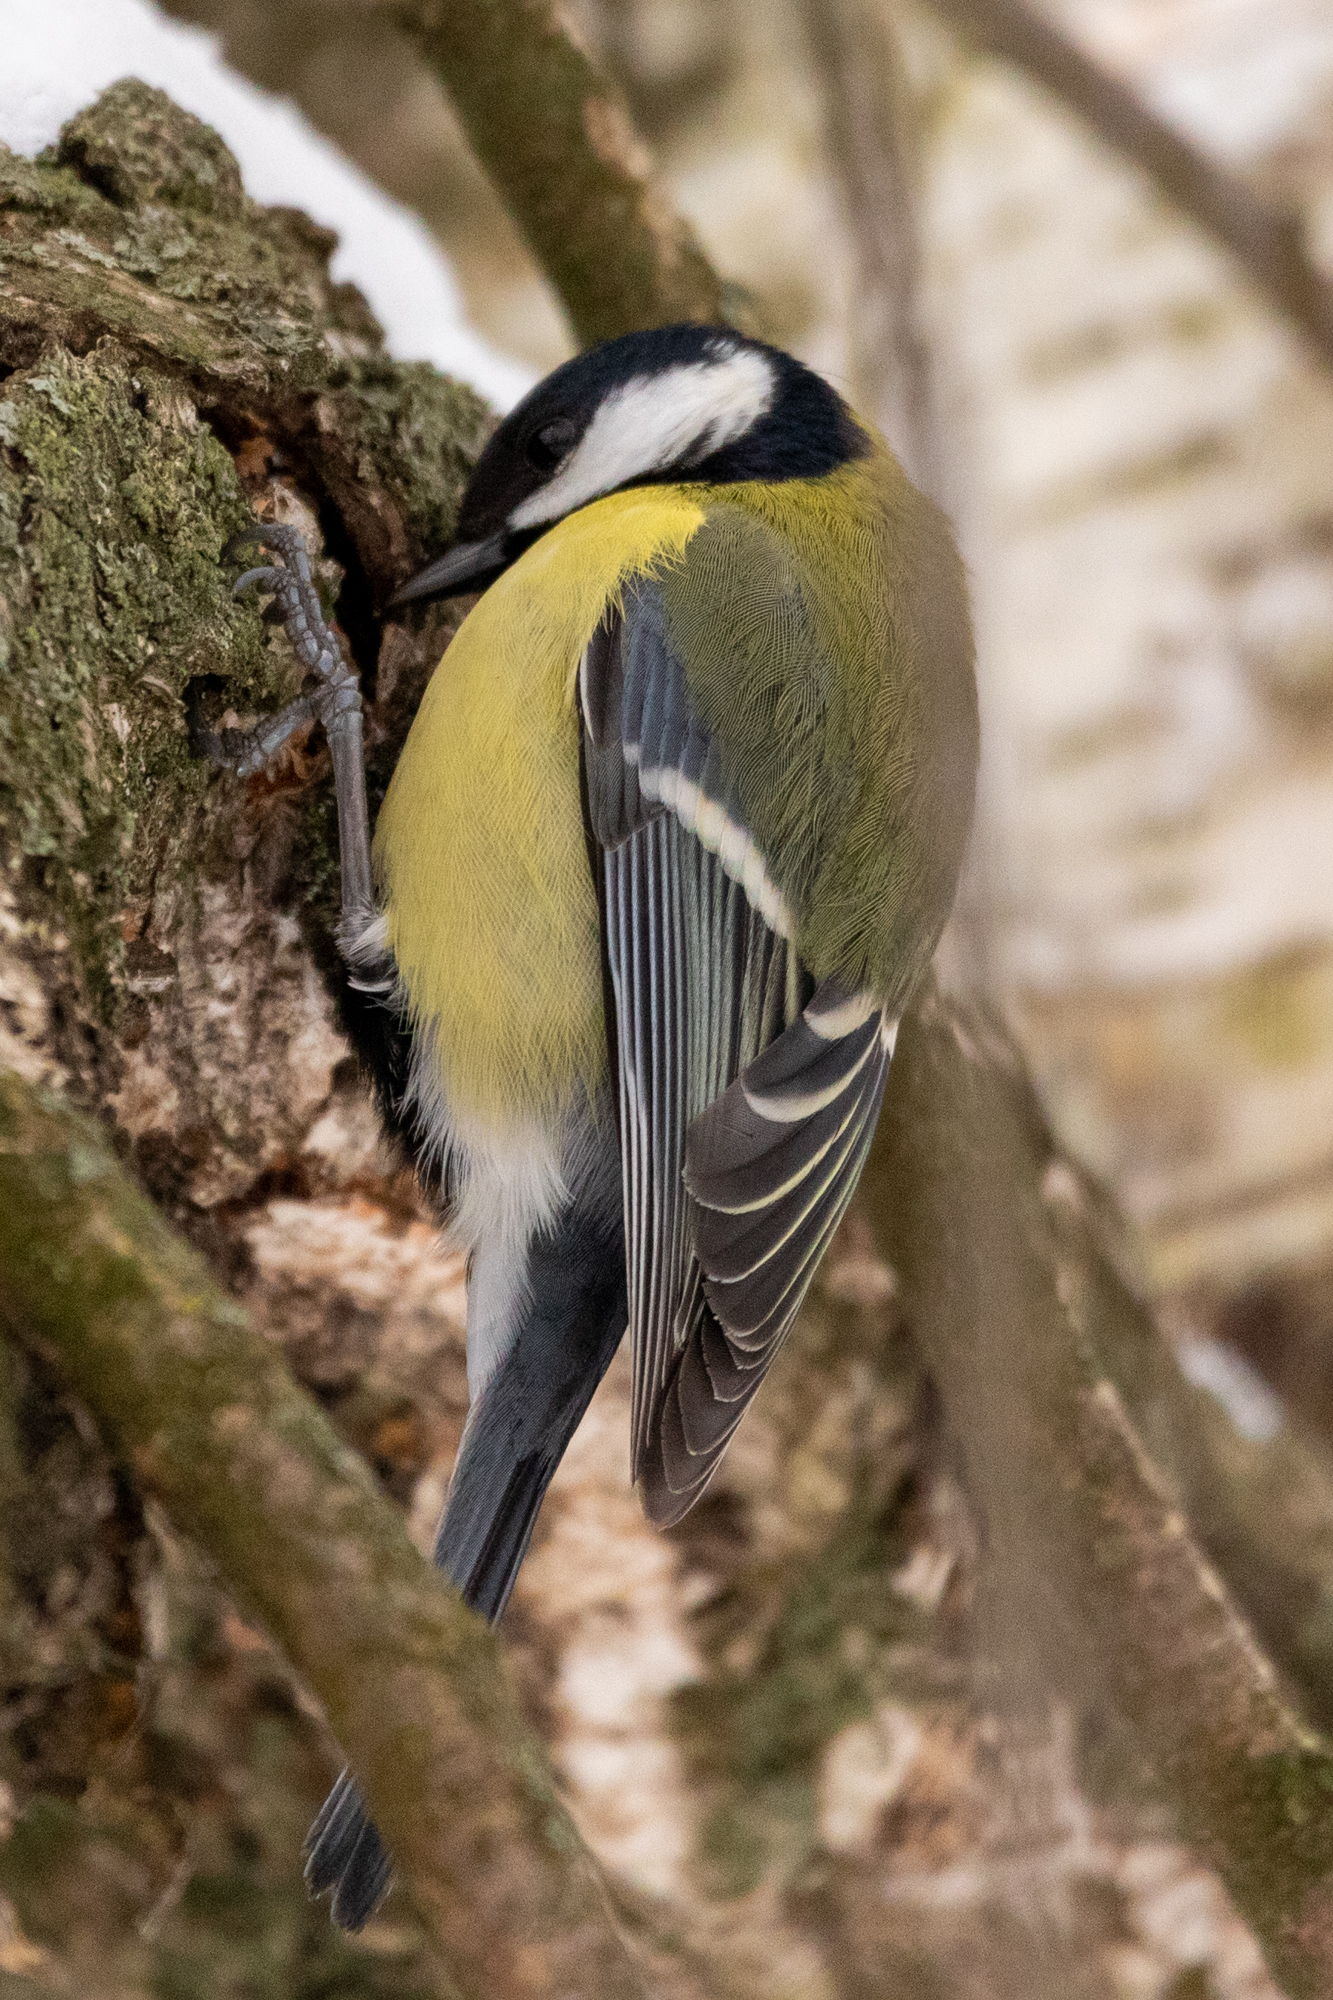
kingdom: Animalia
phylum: Chordata
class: Aves
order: Passeriformes
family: Paridae
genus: Parus
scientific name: Parus major
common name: Great tit
